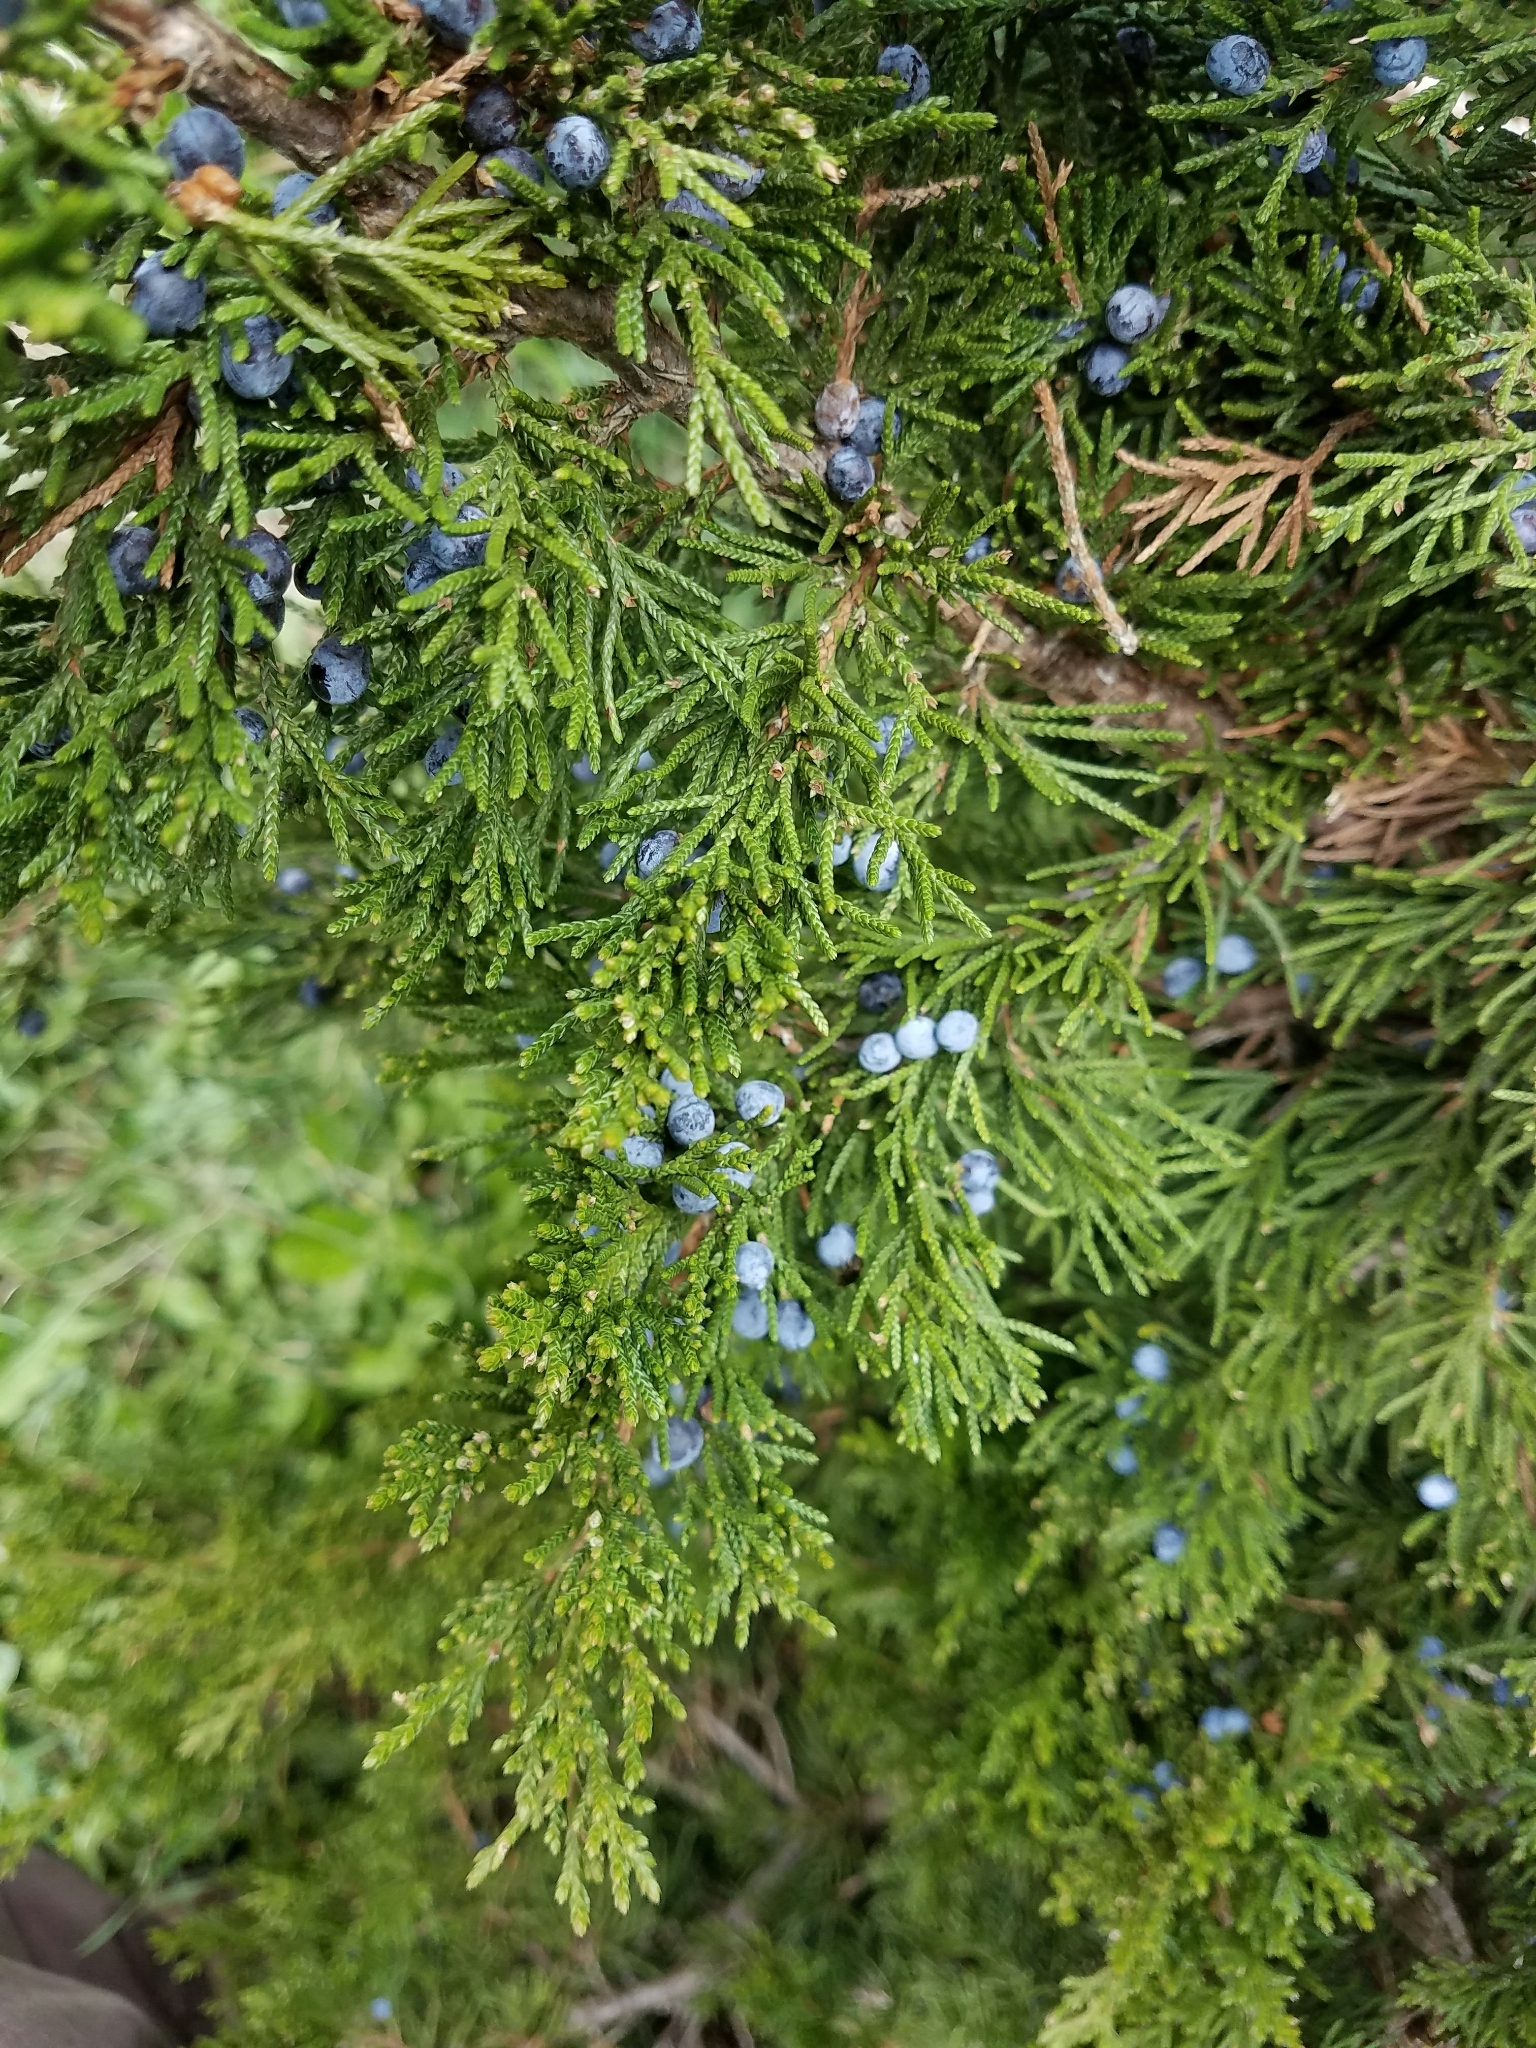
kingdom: Plantae
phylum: Tracheophyta
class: Pinopsida
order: Pinales
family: Cupressaceae
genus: Juniperus
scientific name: Juniperus virginiana
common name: Red juniper
